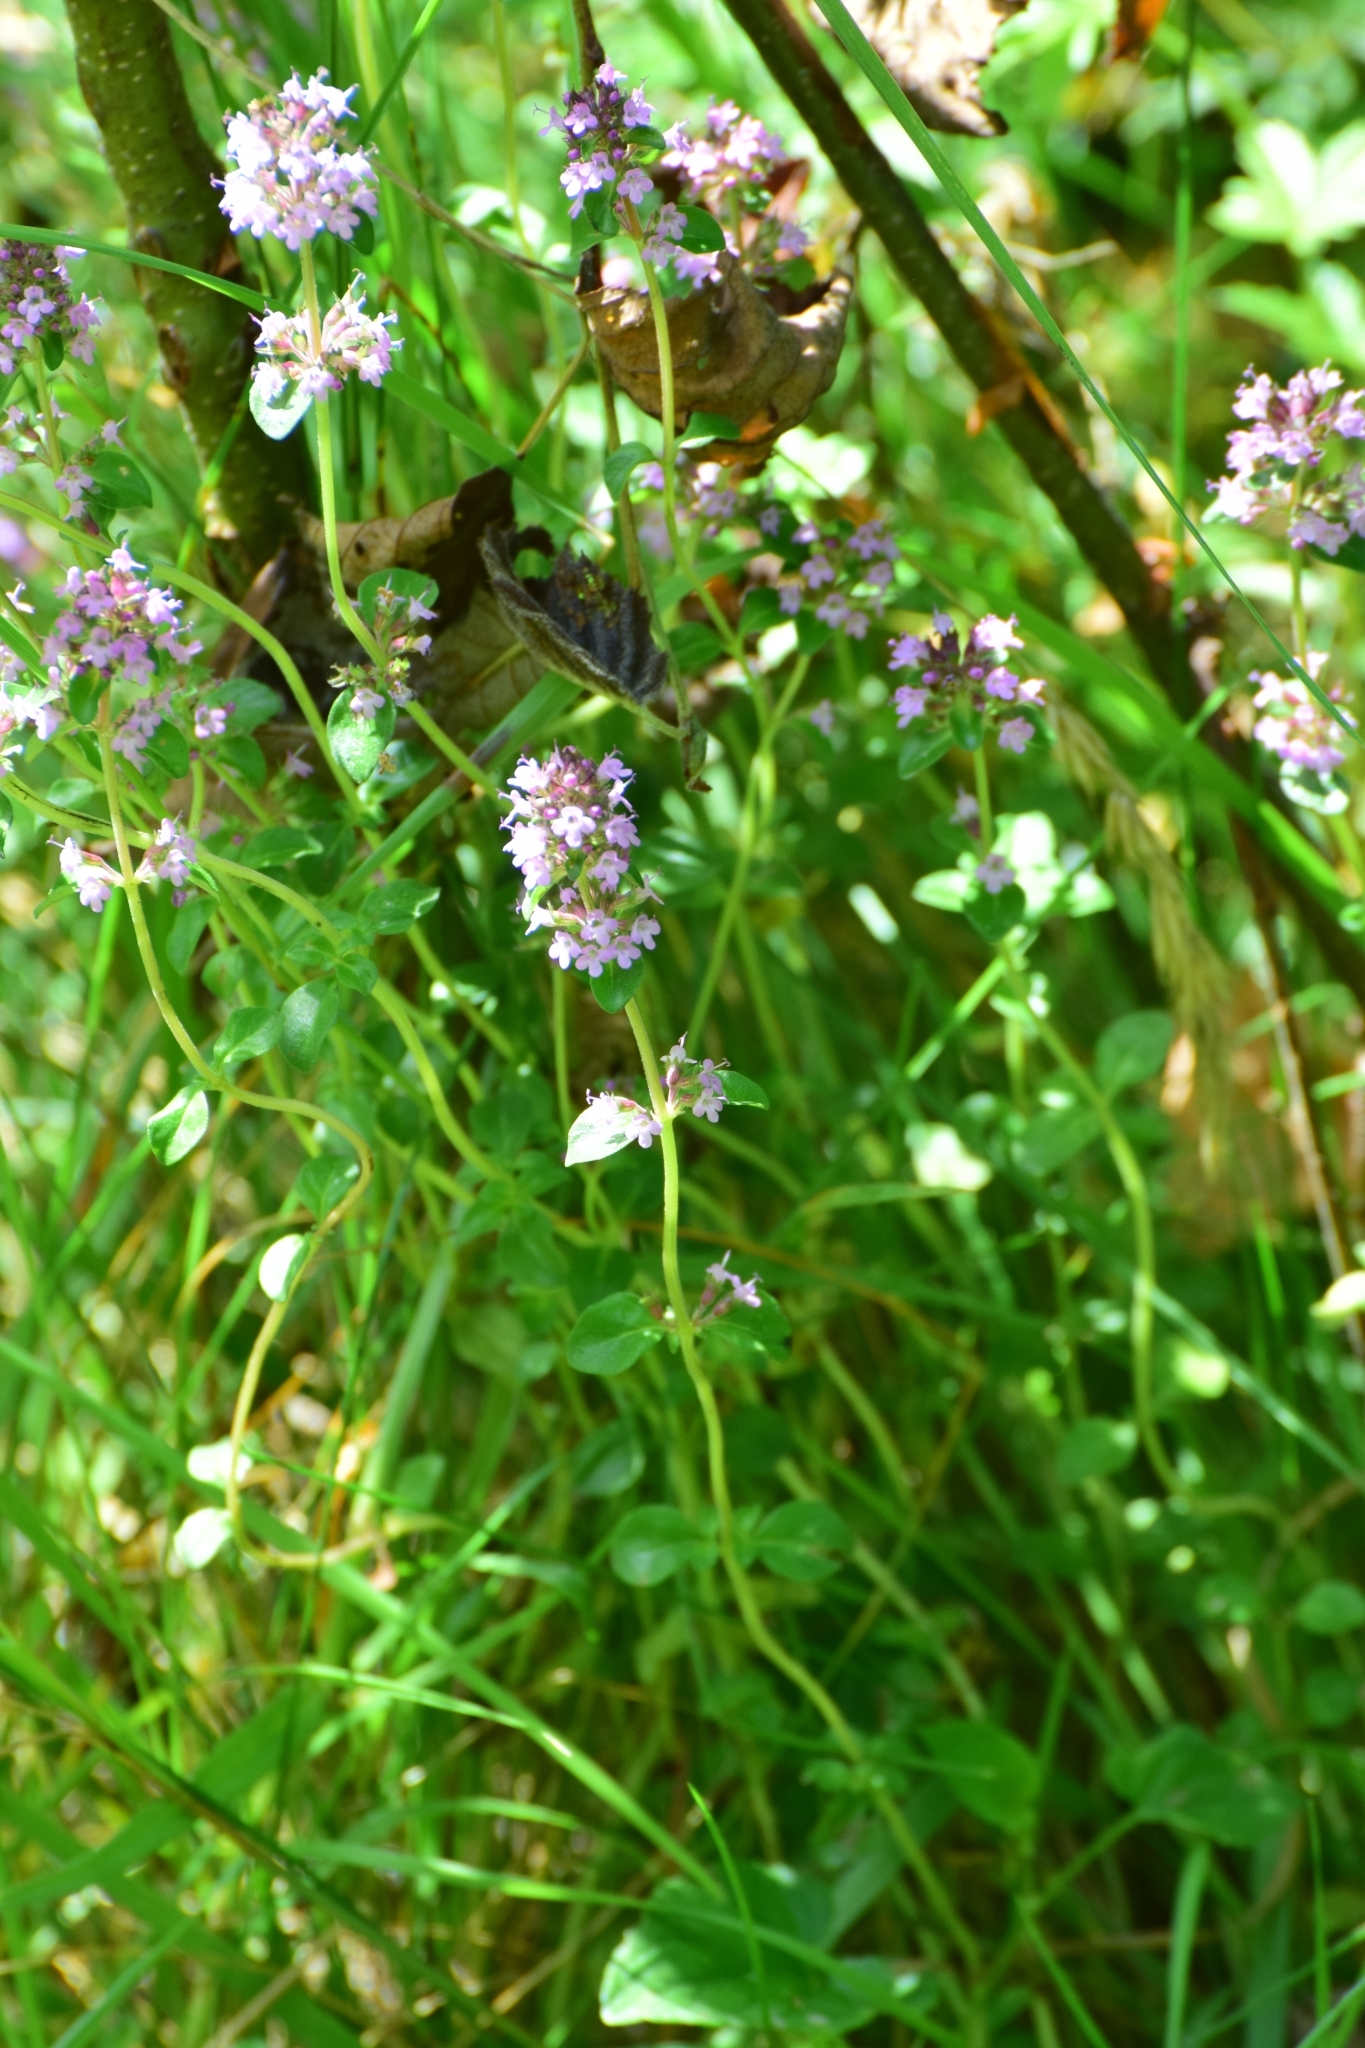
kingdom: Plantae
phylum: Tracheophyta
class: Magnoliopsida
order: Lamiales
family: Lamiaceae
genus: Thymus
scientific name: Thymus pulegioides
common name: Large thyme
